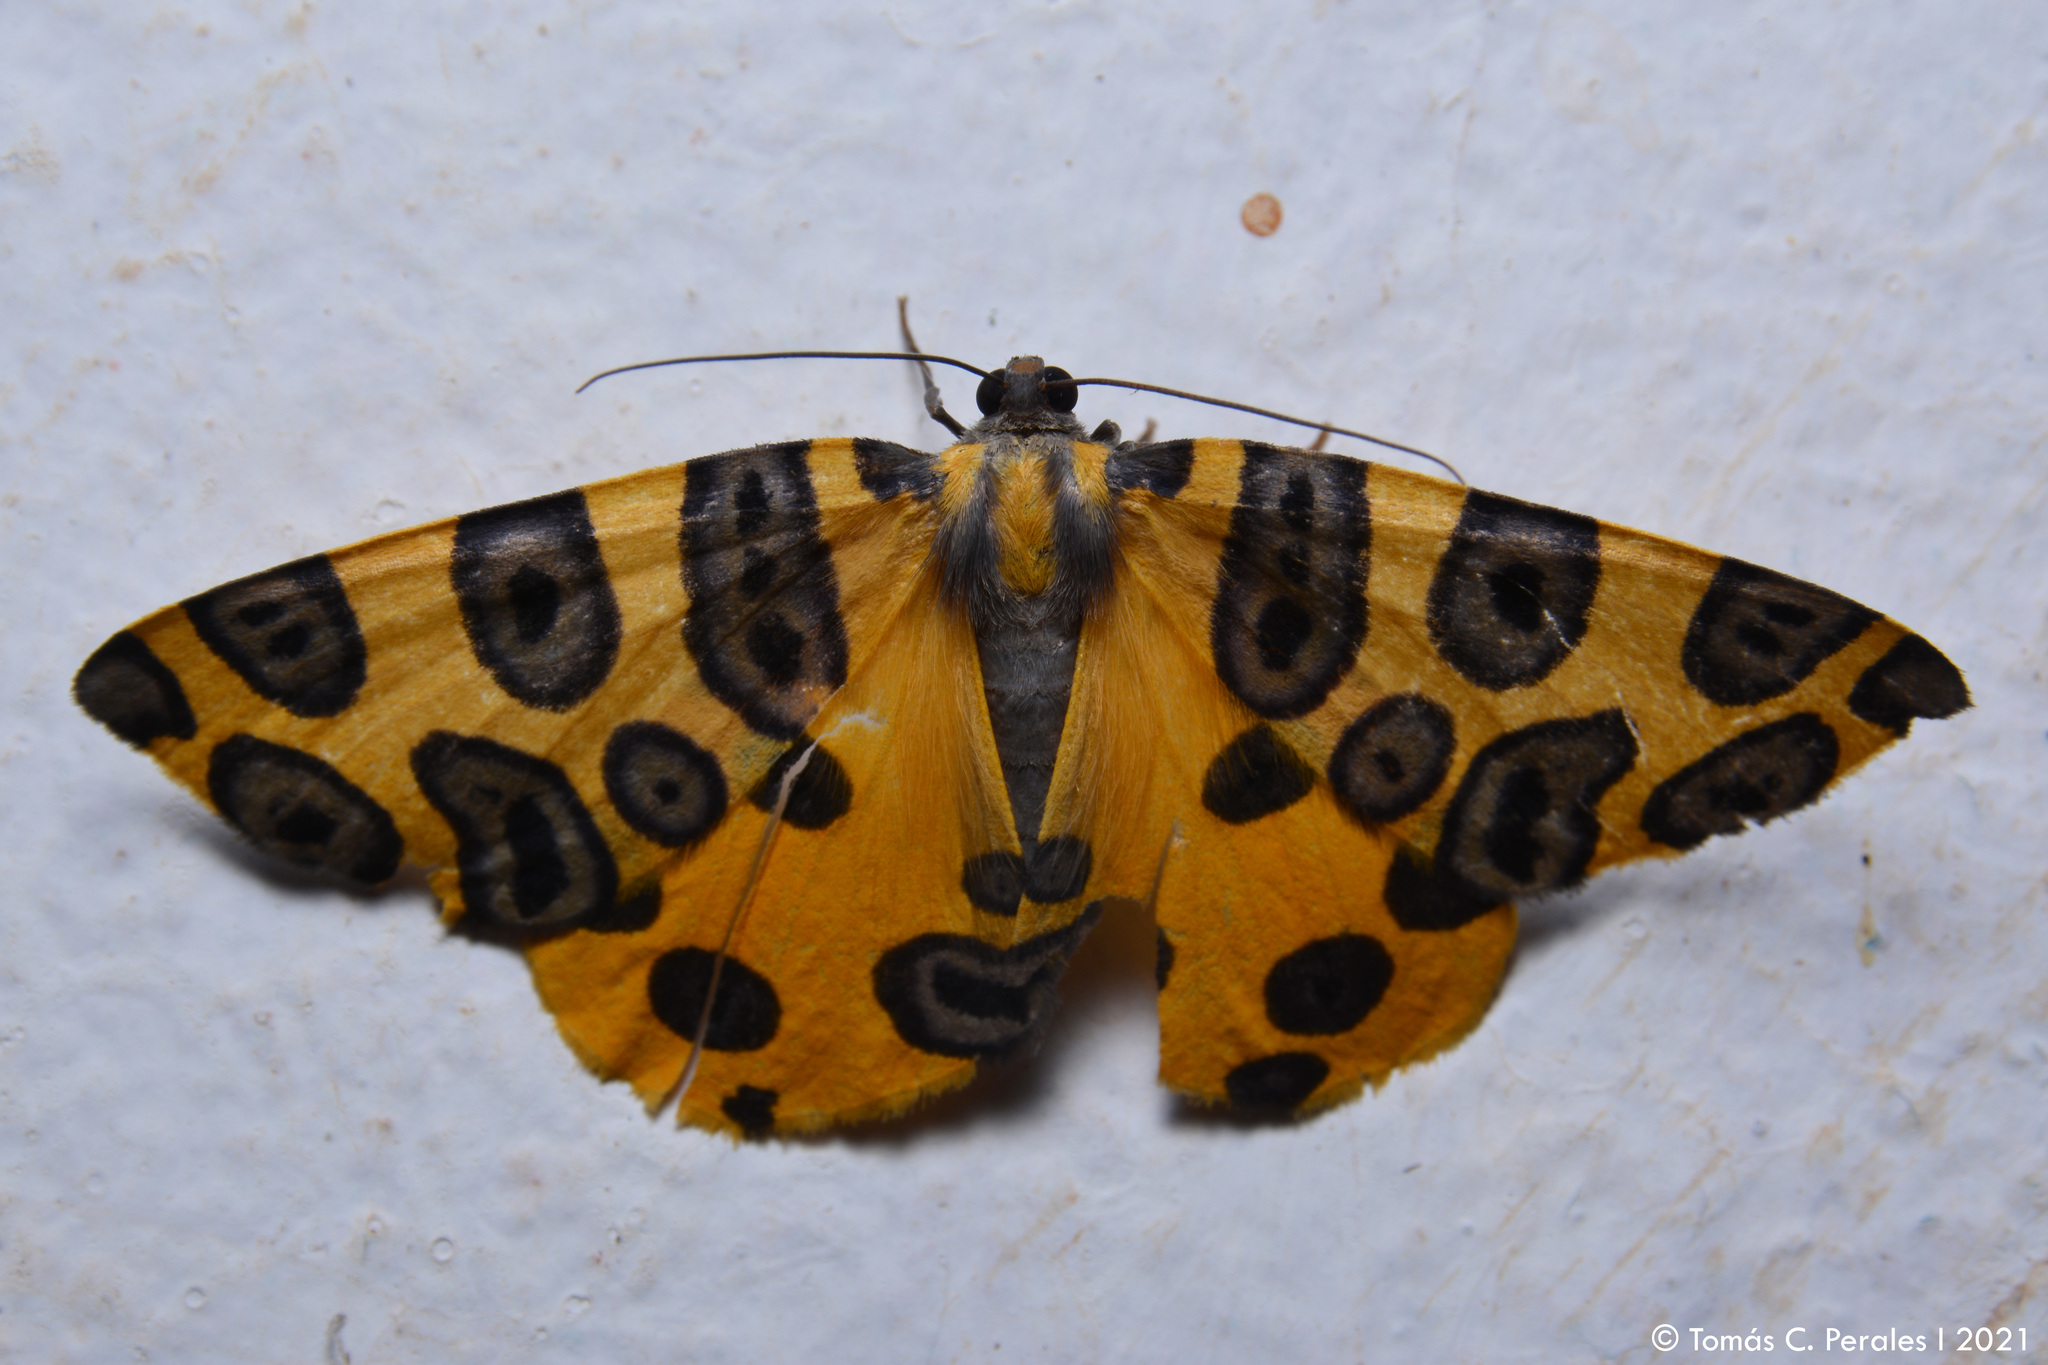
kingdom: Animalia
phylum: Arthropoda
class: Insecta
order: Lepidoptera
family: Geometridae
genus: Pantherodes
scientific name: Pantherodes pardalaria
